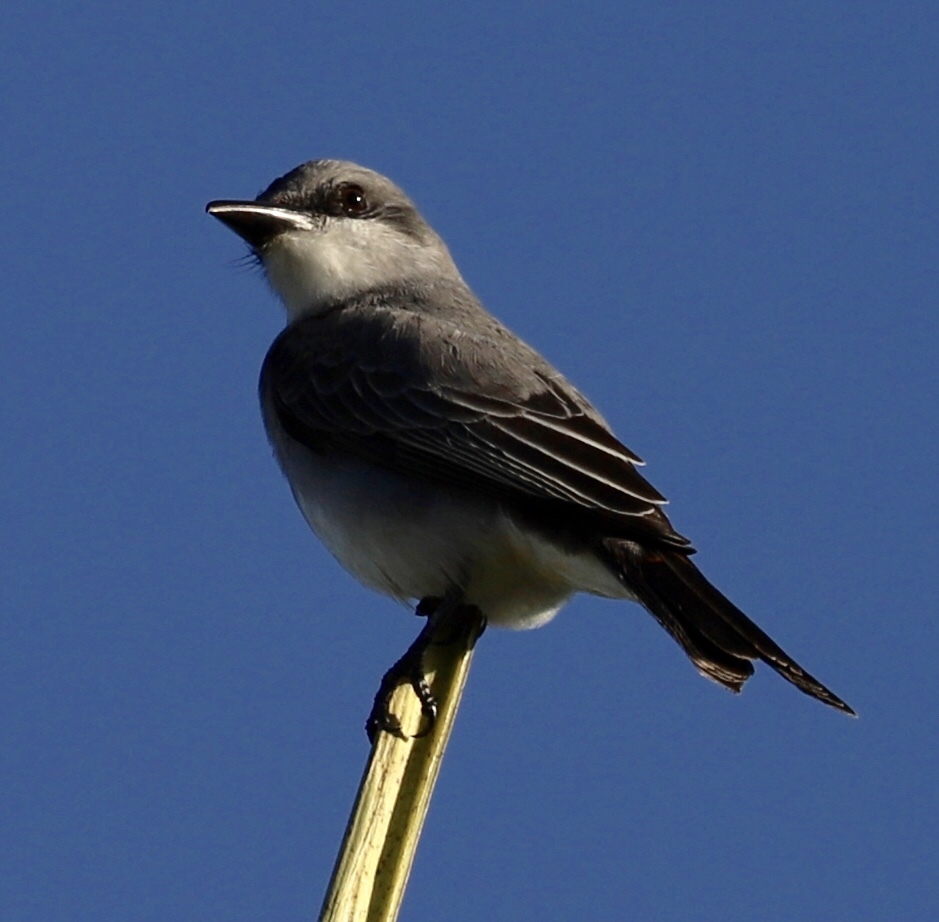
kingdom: Animalia
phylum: Chordata
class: Aves
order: Passeriformes
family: Tyrannidae
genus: Tyrannus
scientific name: Tyrannus dominicensis
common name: Gray kingbird
